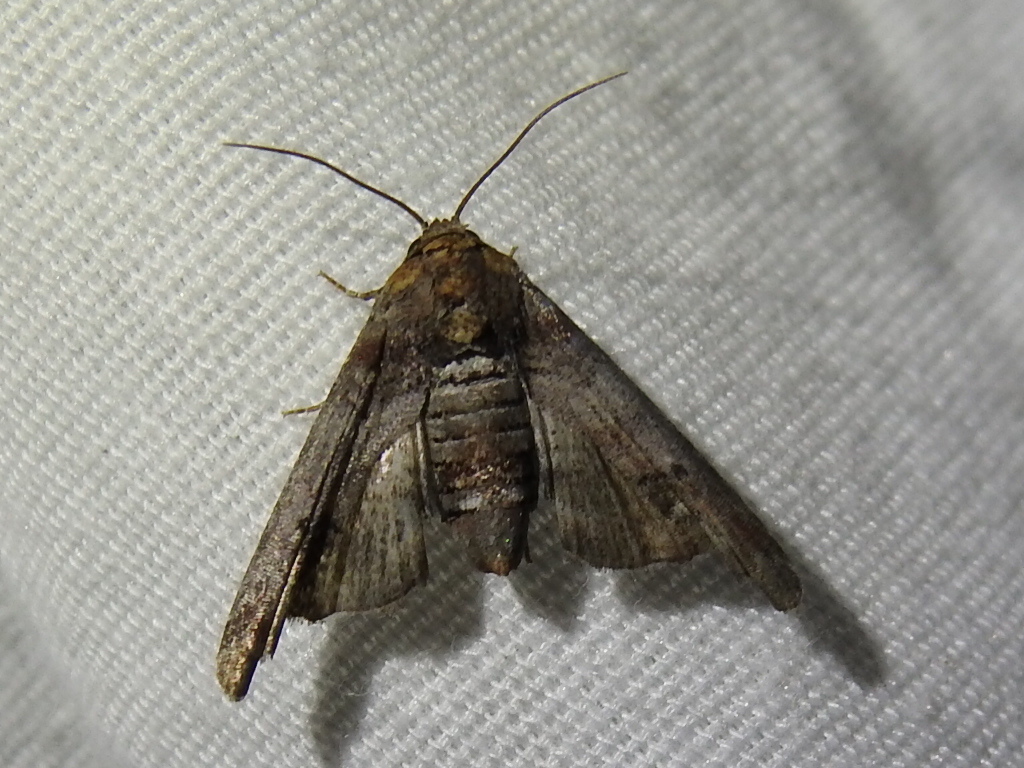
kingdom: Animalia
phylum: Arthropoda
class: Insecta
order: Lepidoptera
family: Euteliidae
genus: Marathyssa
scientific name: Marathyssa inficita
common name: Dark marathyssa moth
